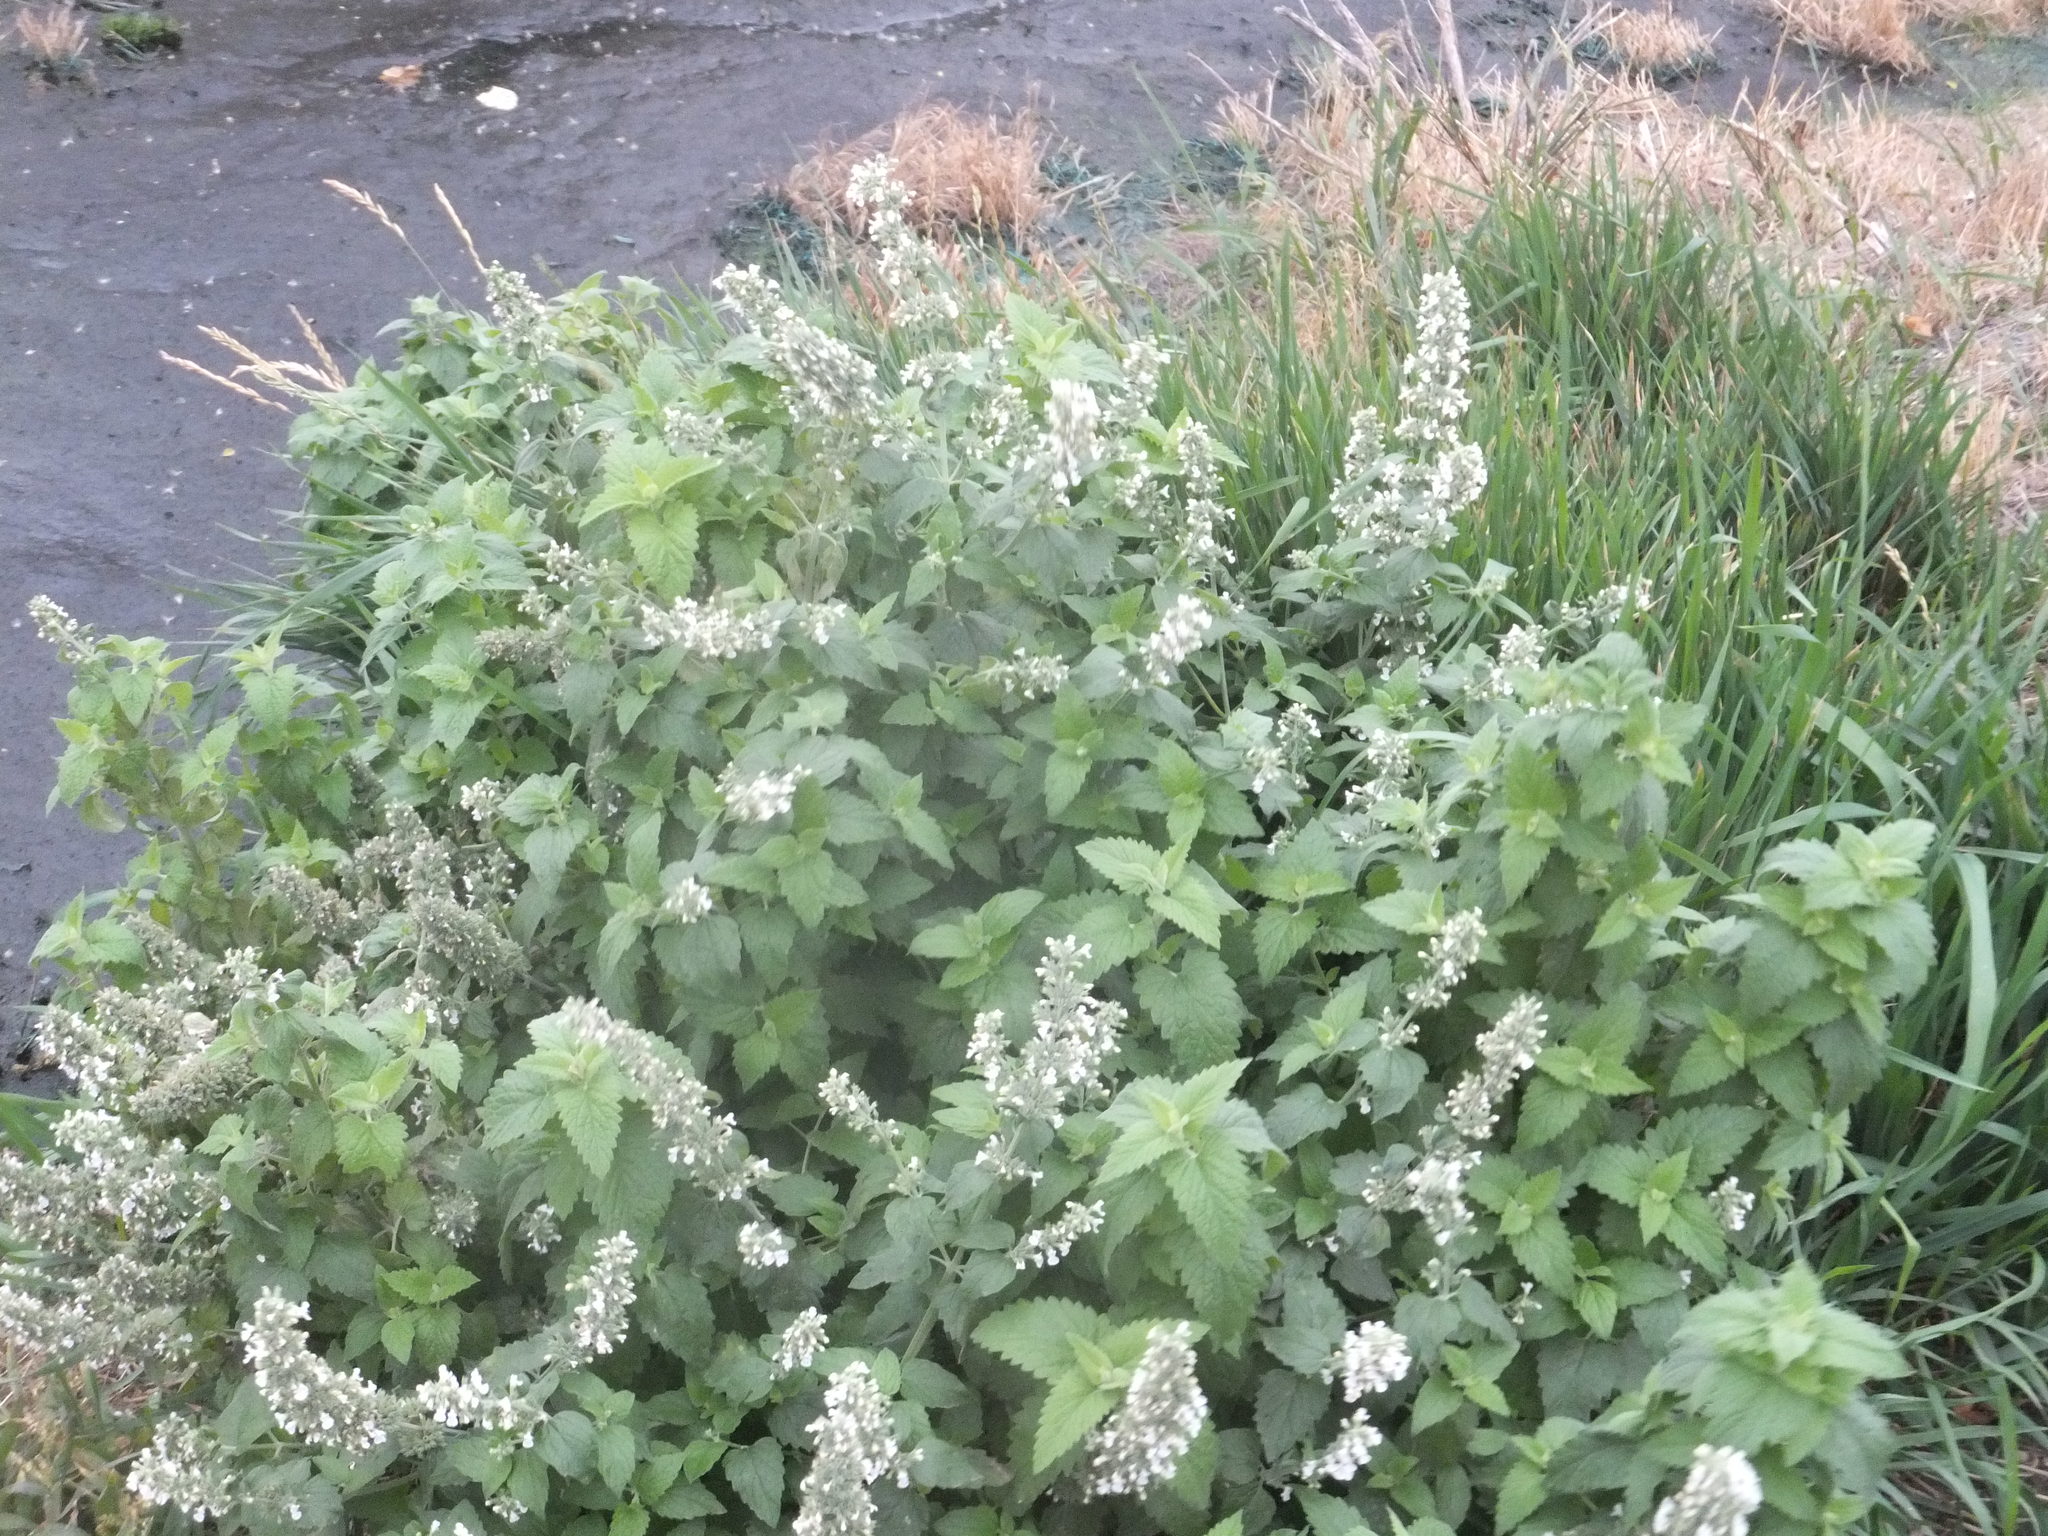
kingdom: Plantae
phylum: Tracheophyta
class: Magnoliopsida
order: Lamiales
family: Lamiaceae
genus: Nepeta
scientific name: Nepeta cataria
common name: Catnip
